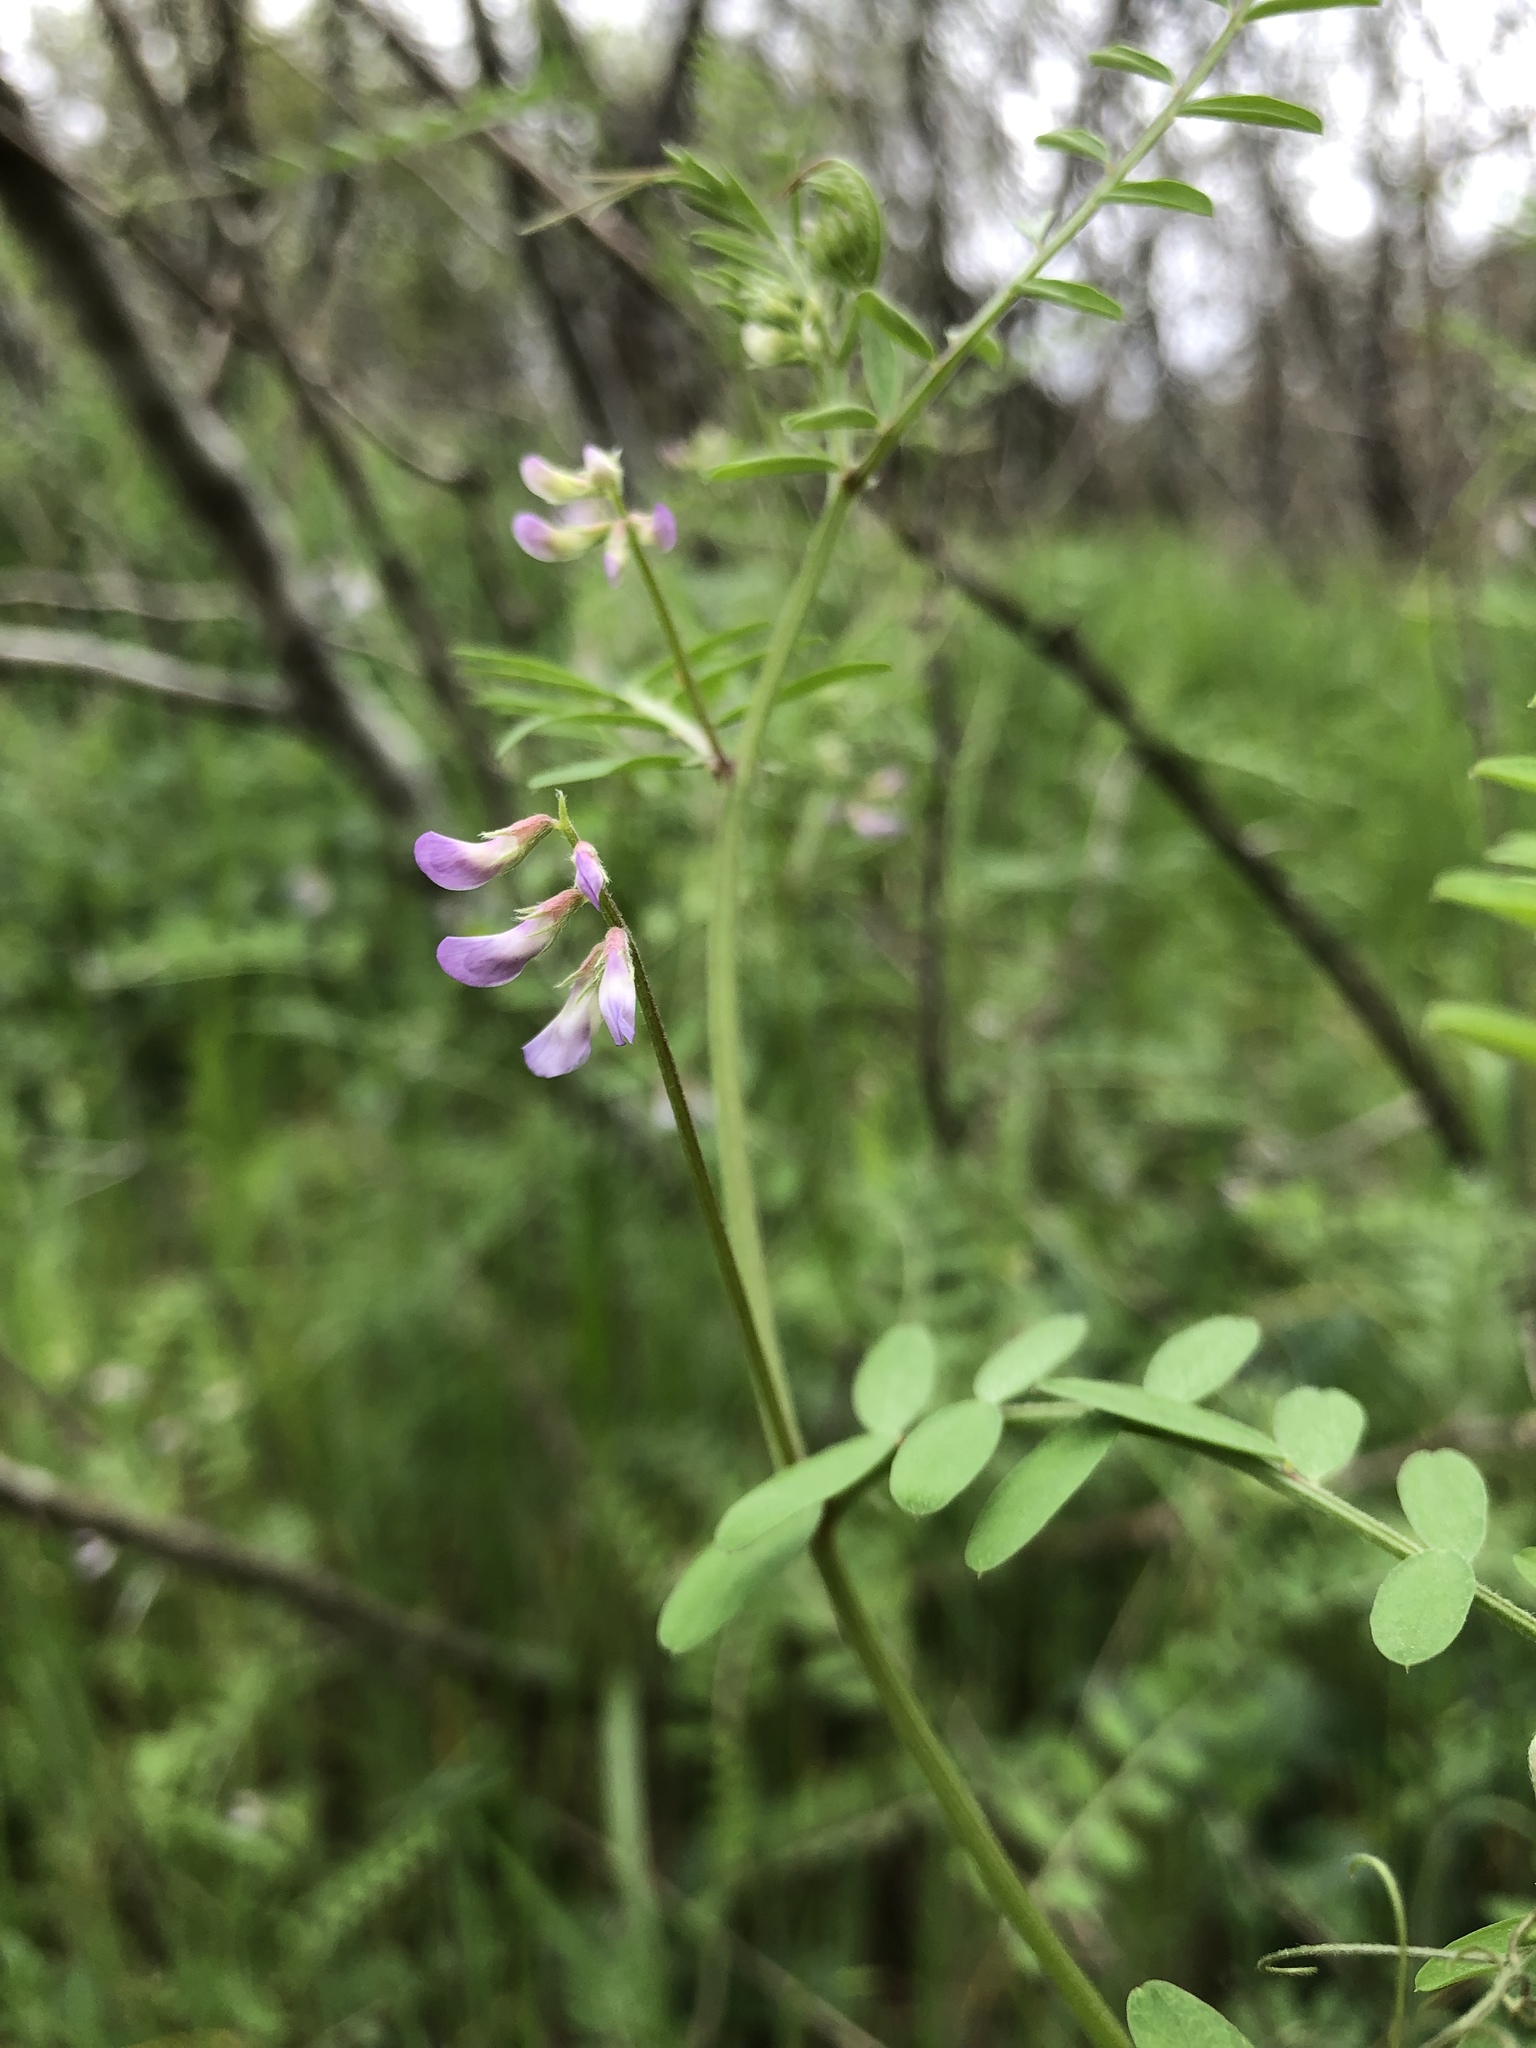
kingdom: Plantae
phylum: Tracheophyta
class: Magnoliopsida
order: Fabales
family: Fabaceae
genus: Vicia
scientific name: Vicia ludoviciana
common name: Louisiana vetch
